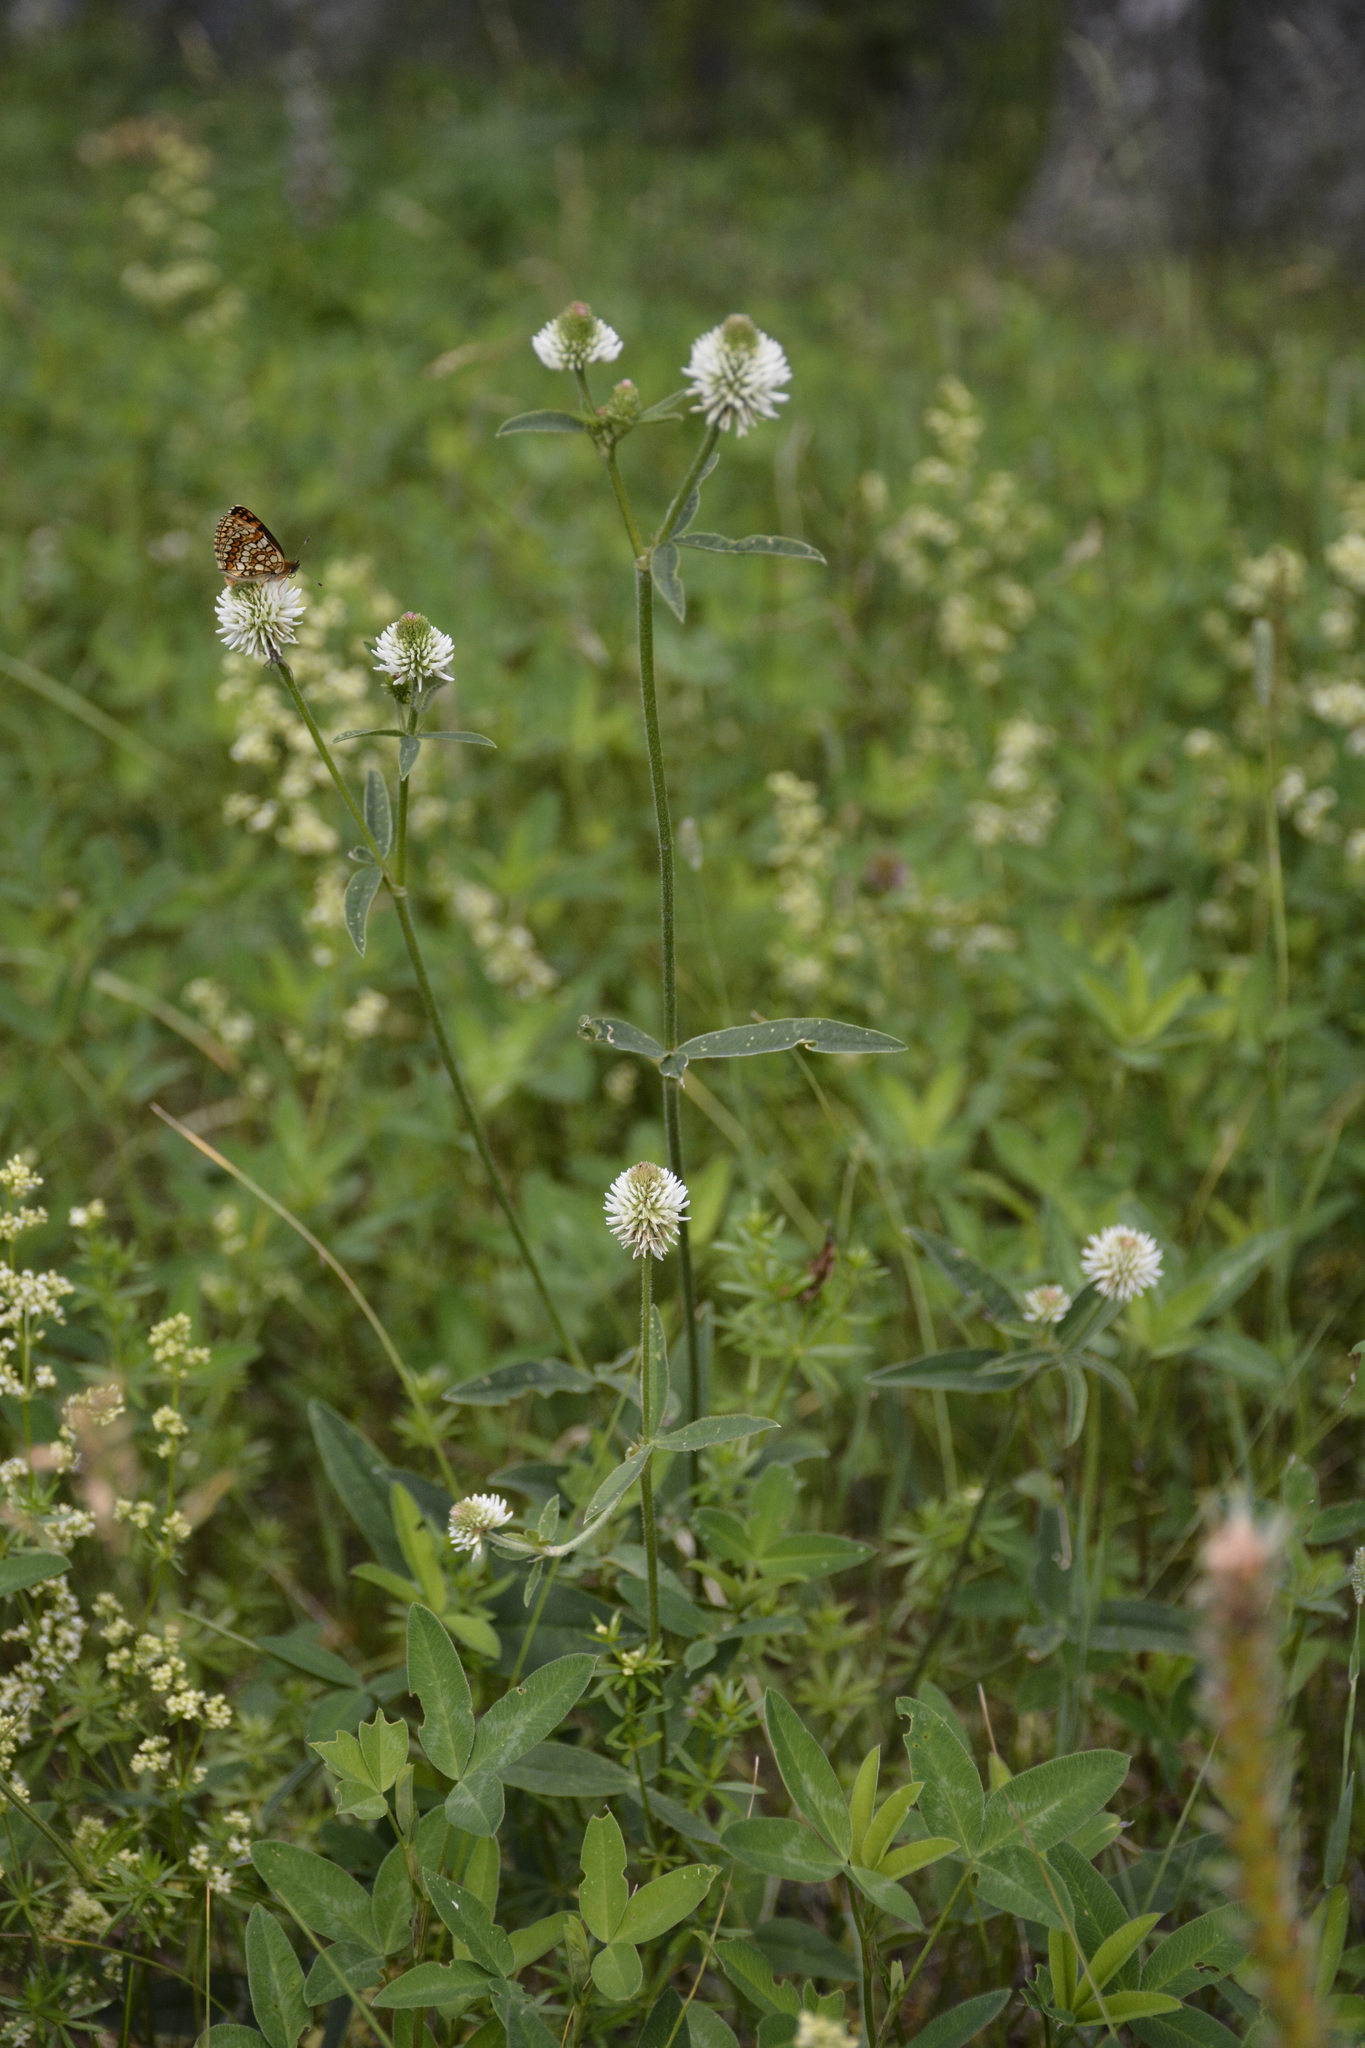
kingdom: Plantae
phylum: Tracheophyta
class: Magnoliopsida
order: Fabales
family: Fabaceae
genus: Trifolium
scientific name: Trifolium montanum
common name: Mountain clover
